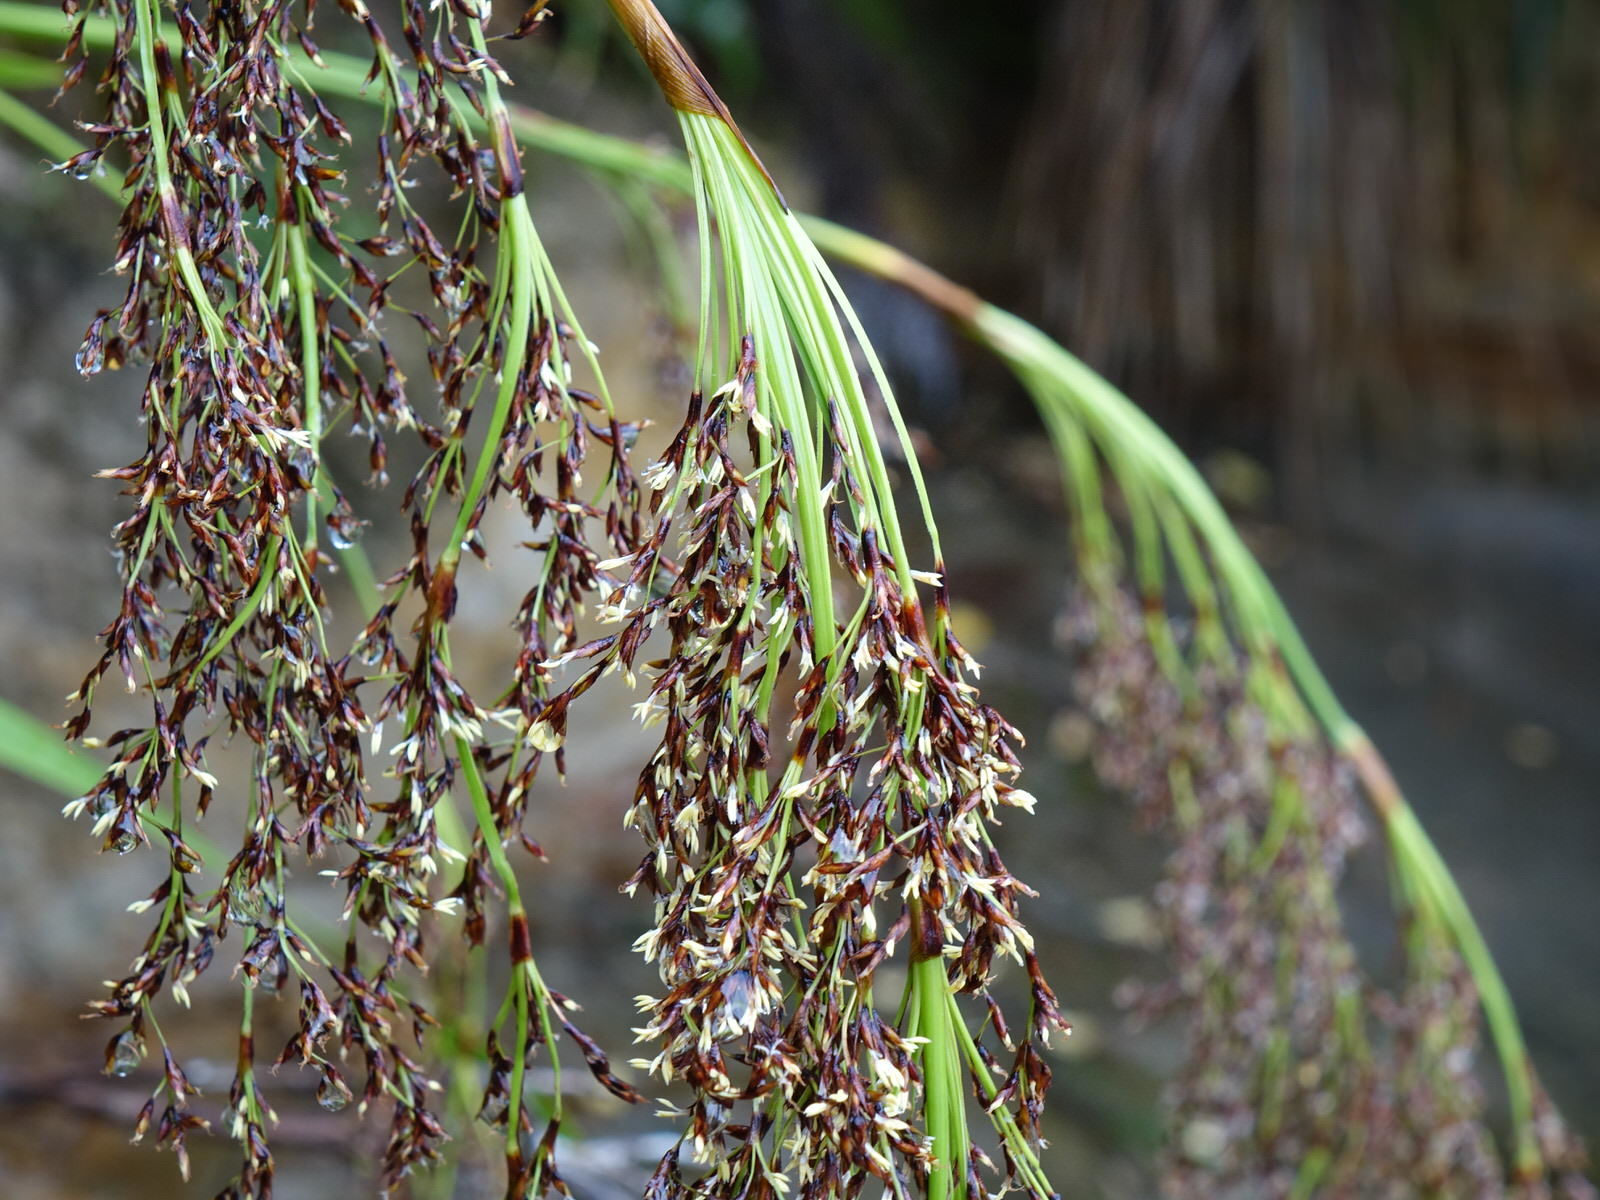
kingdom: Plantae
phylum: Tracheophyta
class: Liliopsida
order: Poales
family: Cyperaceae
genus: Machaerina
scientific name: Machaerina sinclairii
